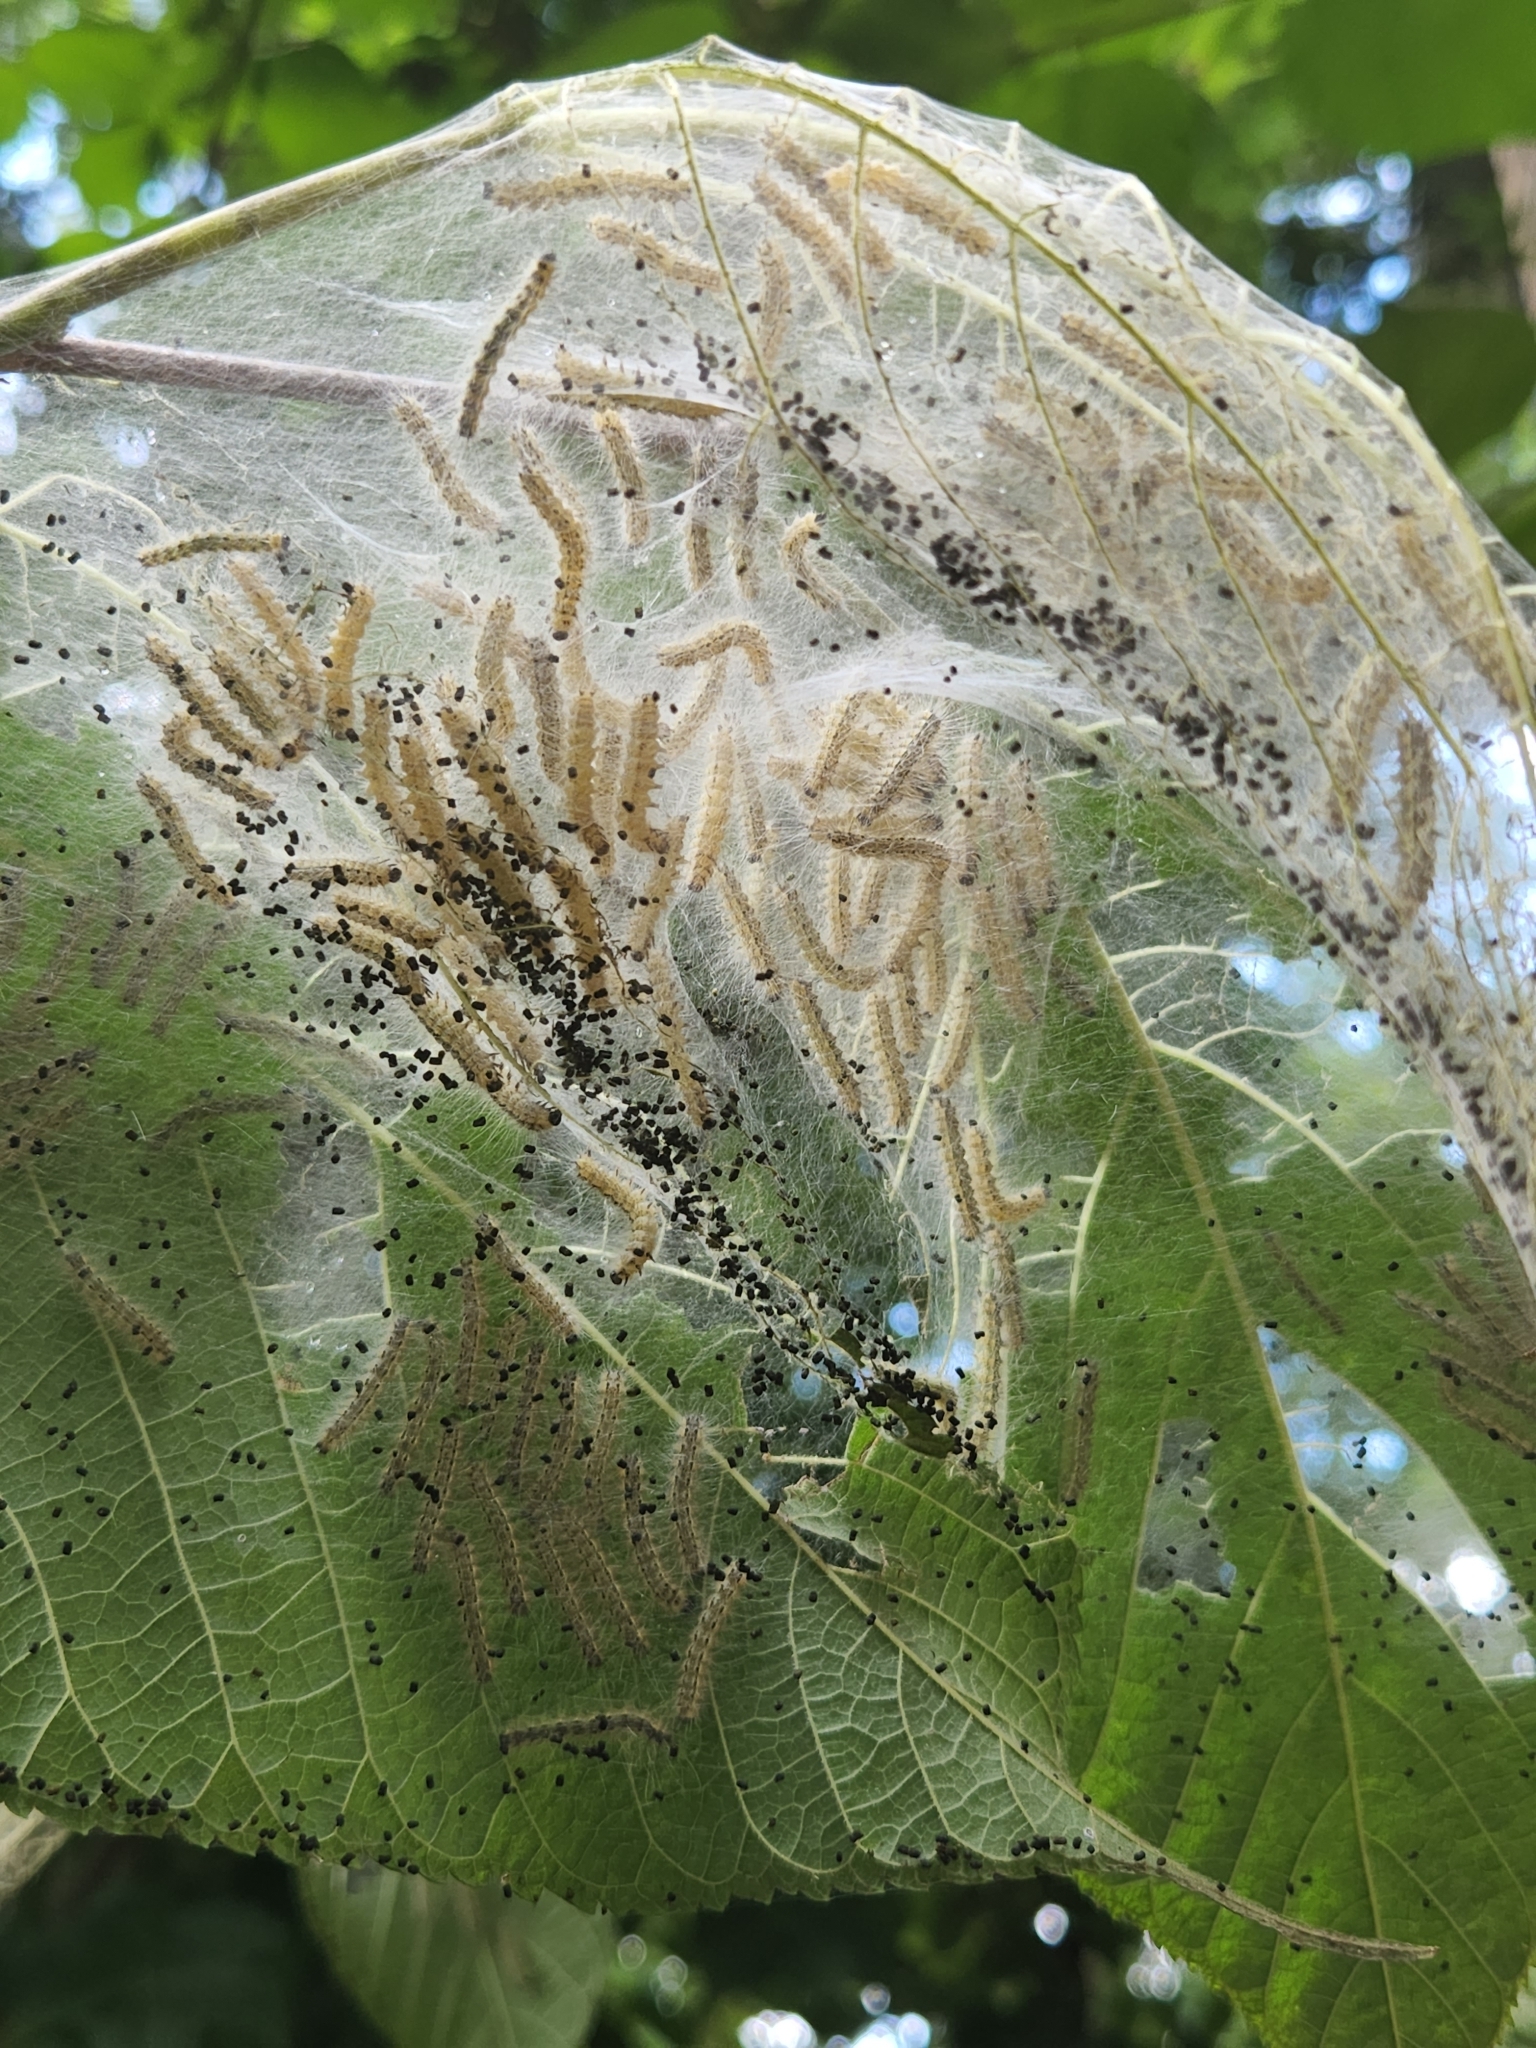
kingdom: Animalia
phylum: Arthropoda
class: Insecta
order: Lepidoptera
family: Erebidae
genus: Hyphantria
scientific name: Hyphantria cunea
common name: American white moth
